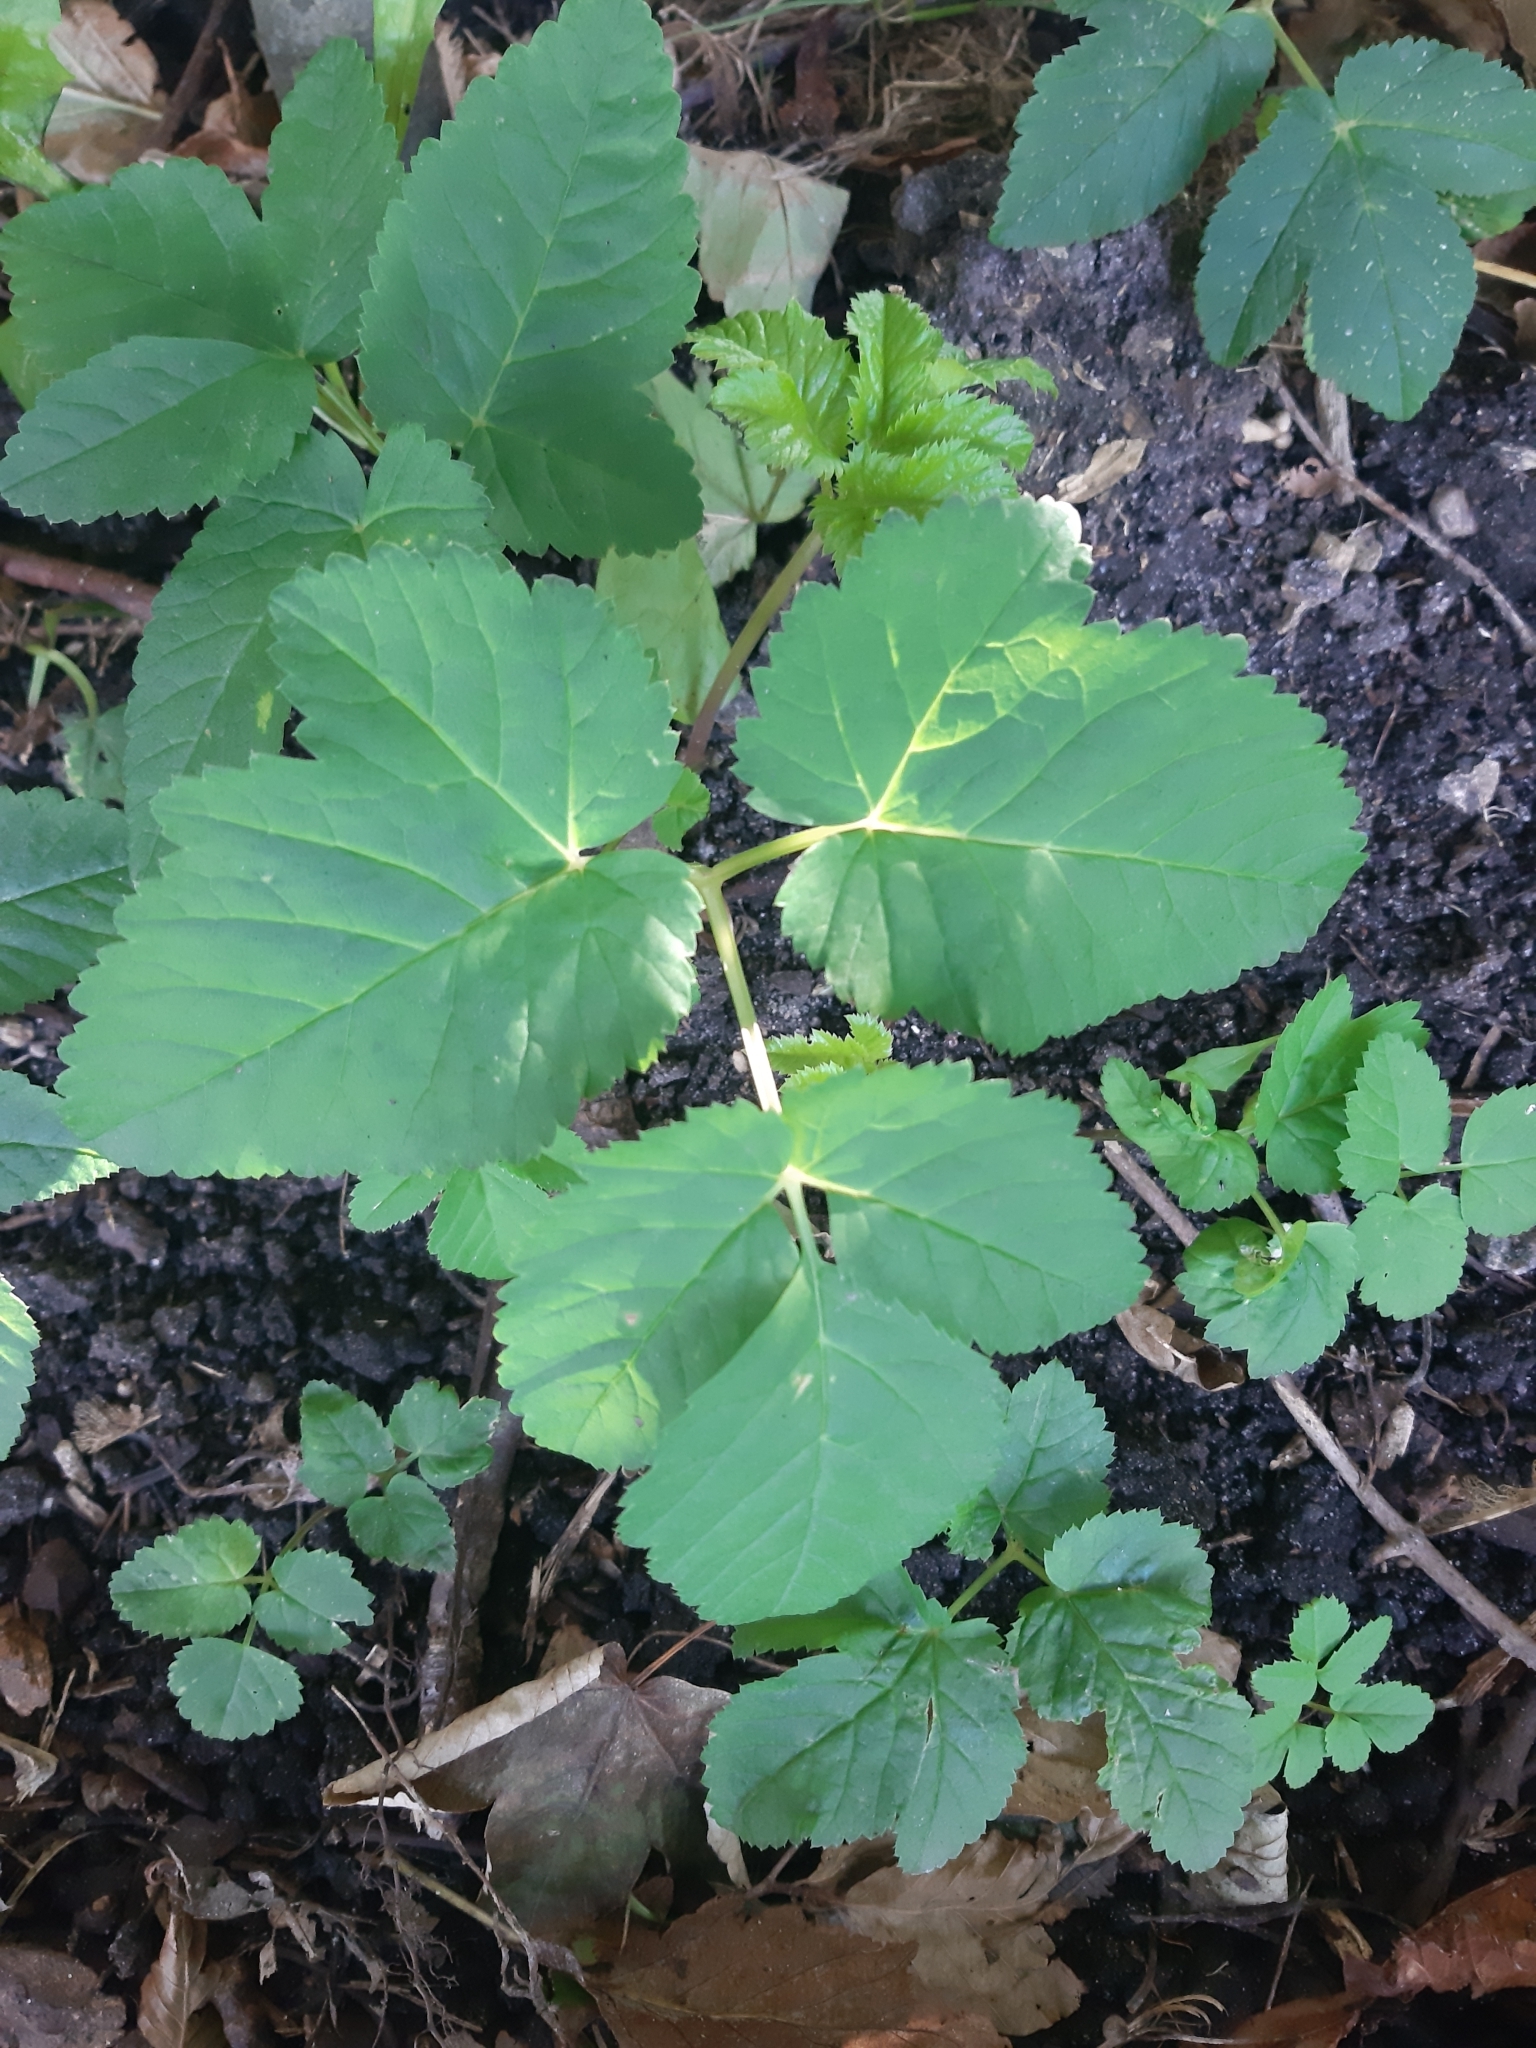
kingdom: Plantae
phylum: Tracheophyta
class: Magnoliopsida
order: Apiales
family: Apiaceae
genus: Aegopodium
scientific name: Aegopodium podagraria
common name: Ground-elder
